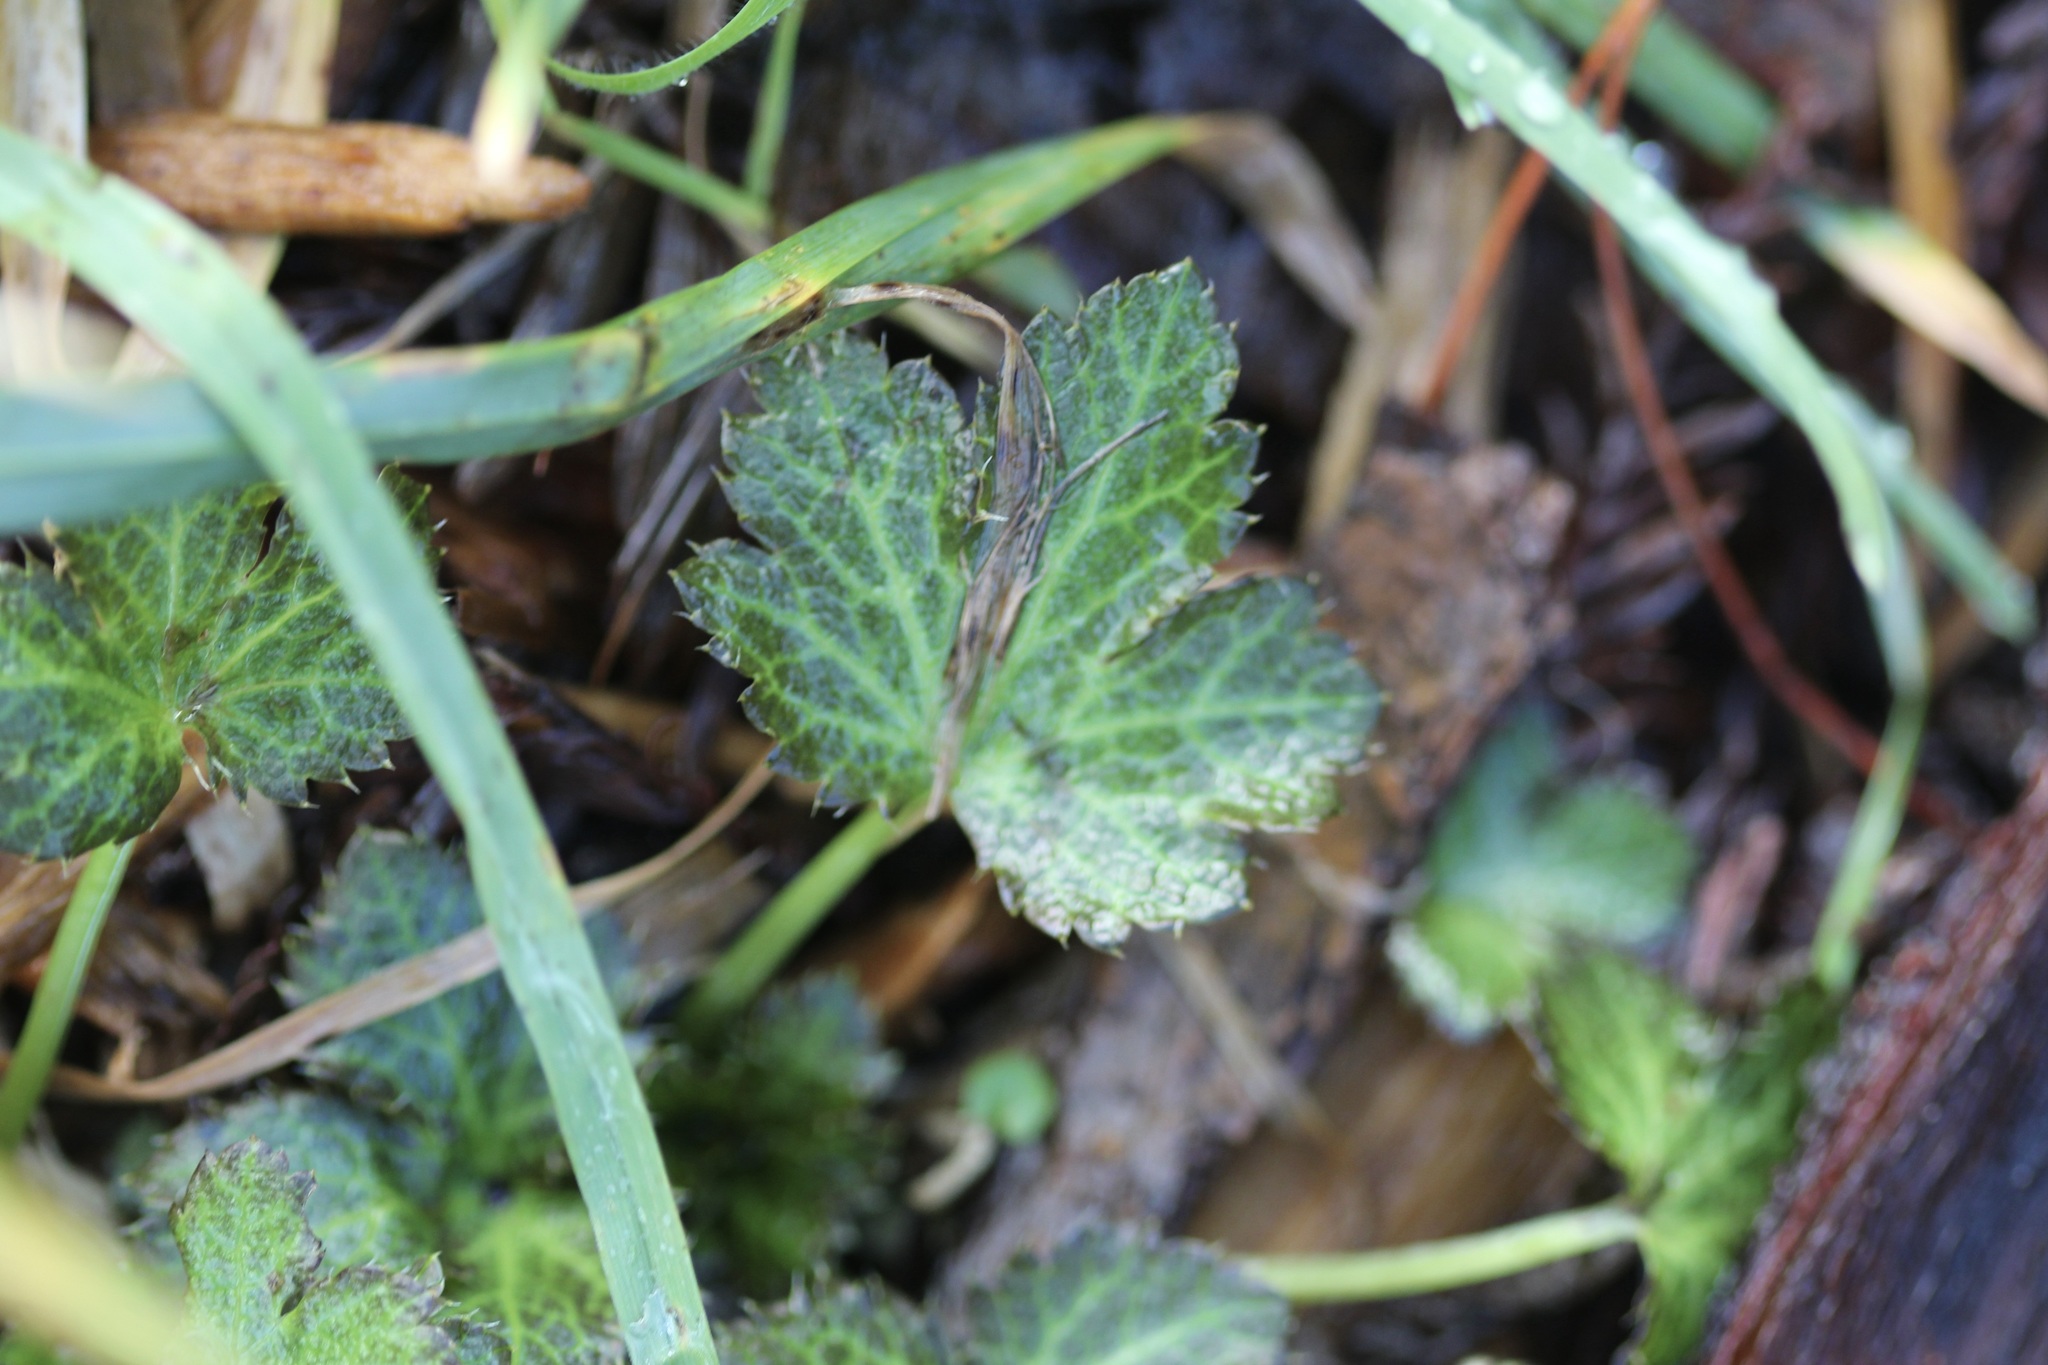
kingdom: Plantae
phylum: Tracheophyta
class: Magnoliopsida
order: Apiales
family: Apiaceae
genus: Sanicula
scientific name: Sanicula crassicaulis
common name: Western snakeroot
